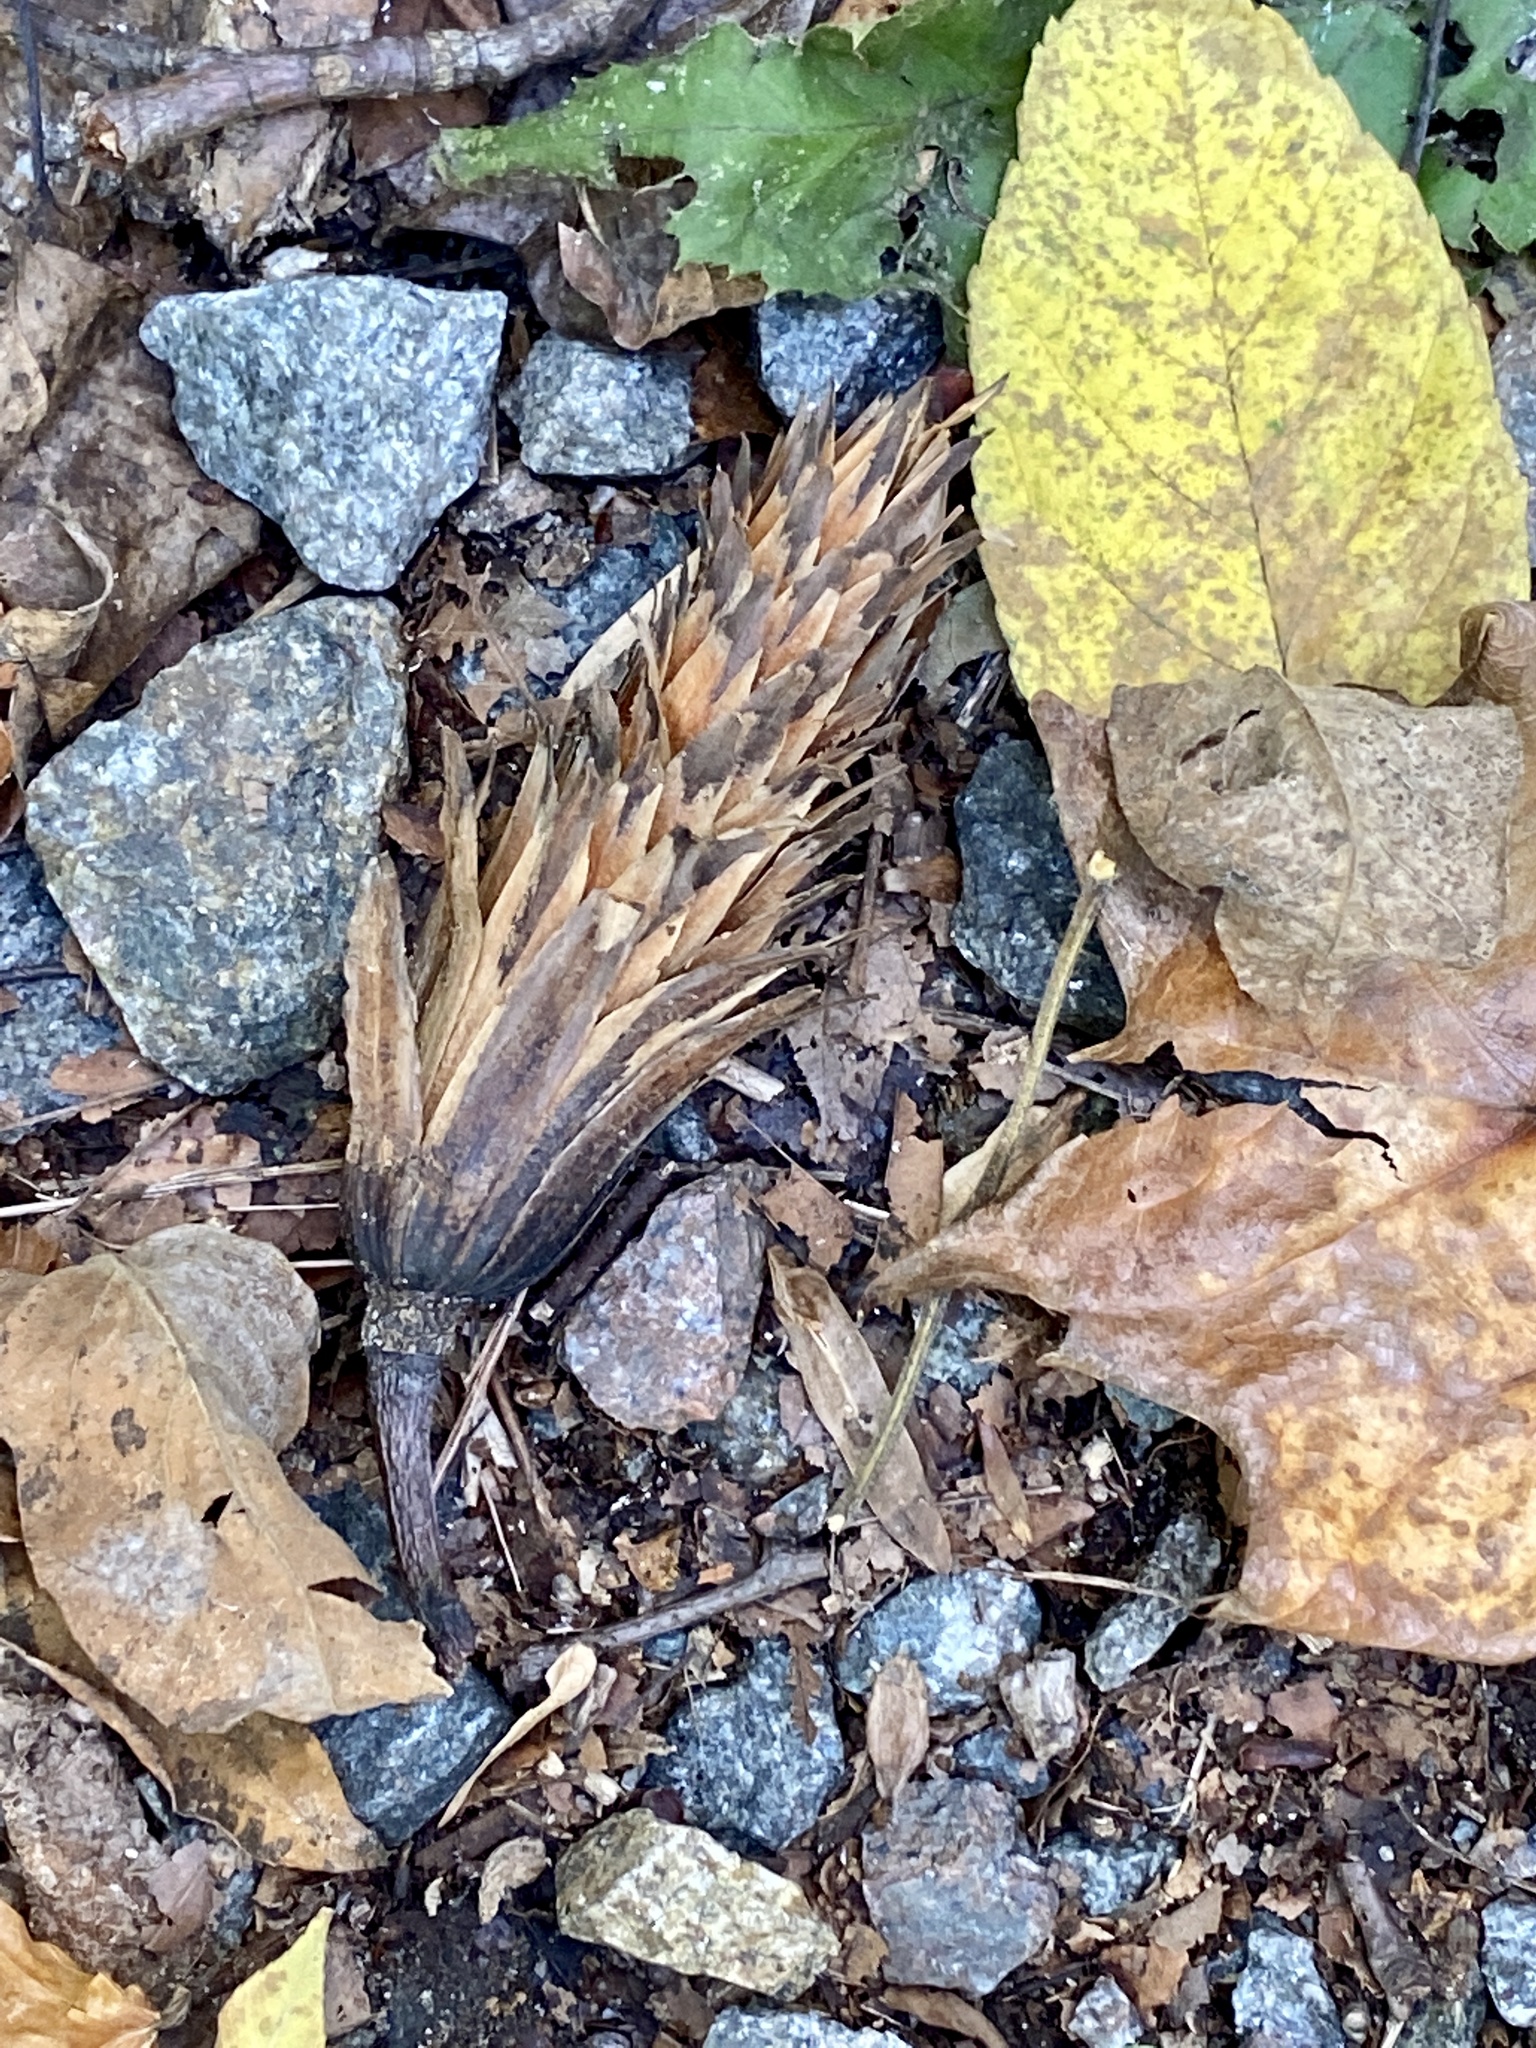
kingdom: Plantae
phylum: Tracheophyta
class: Magnoliopsida
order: Magnoliales
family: Magnoliaceae
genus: Liriodendron
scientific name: Liriodendron tulipifera
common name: Tulip tree
